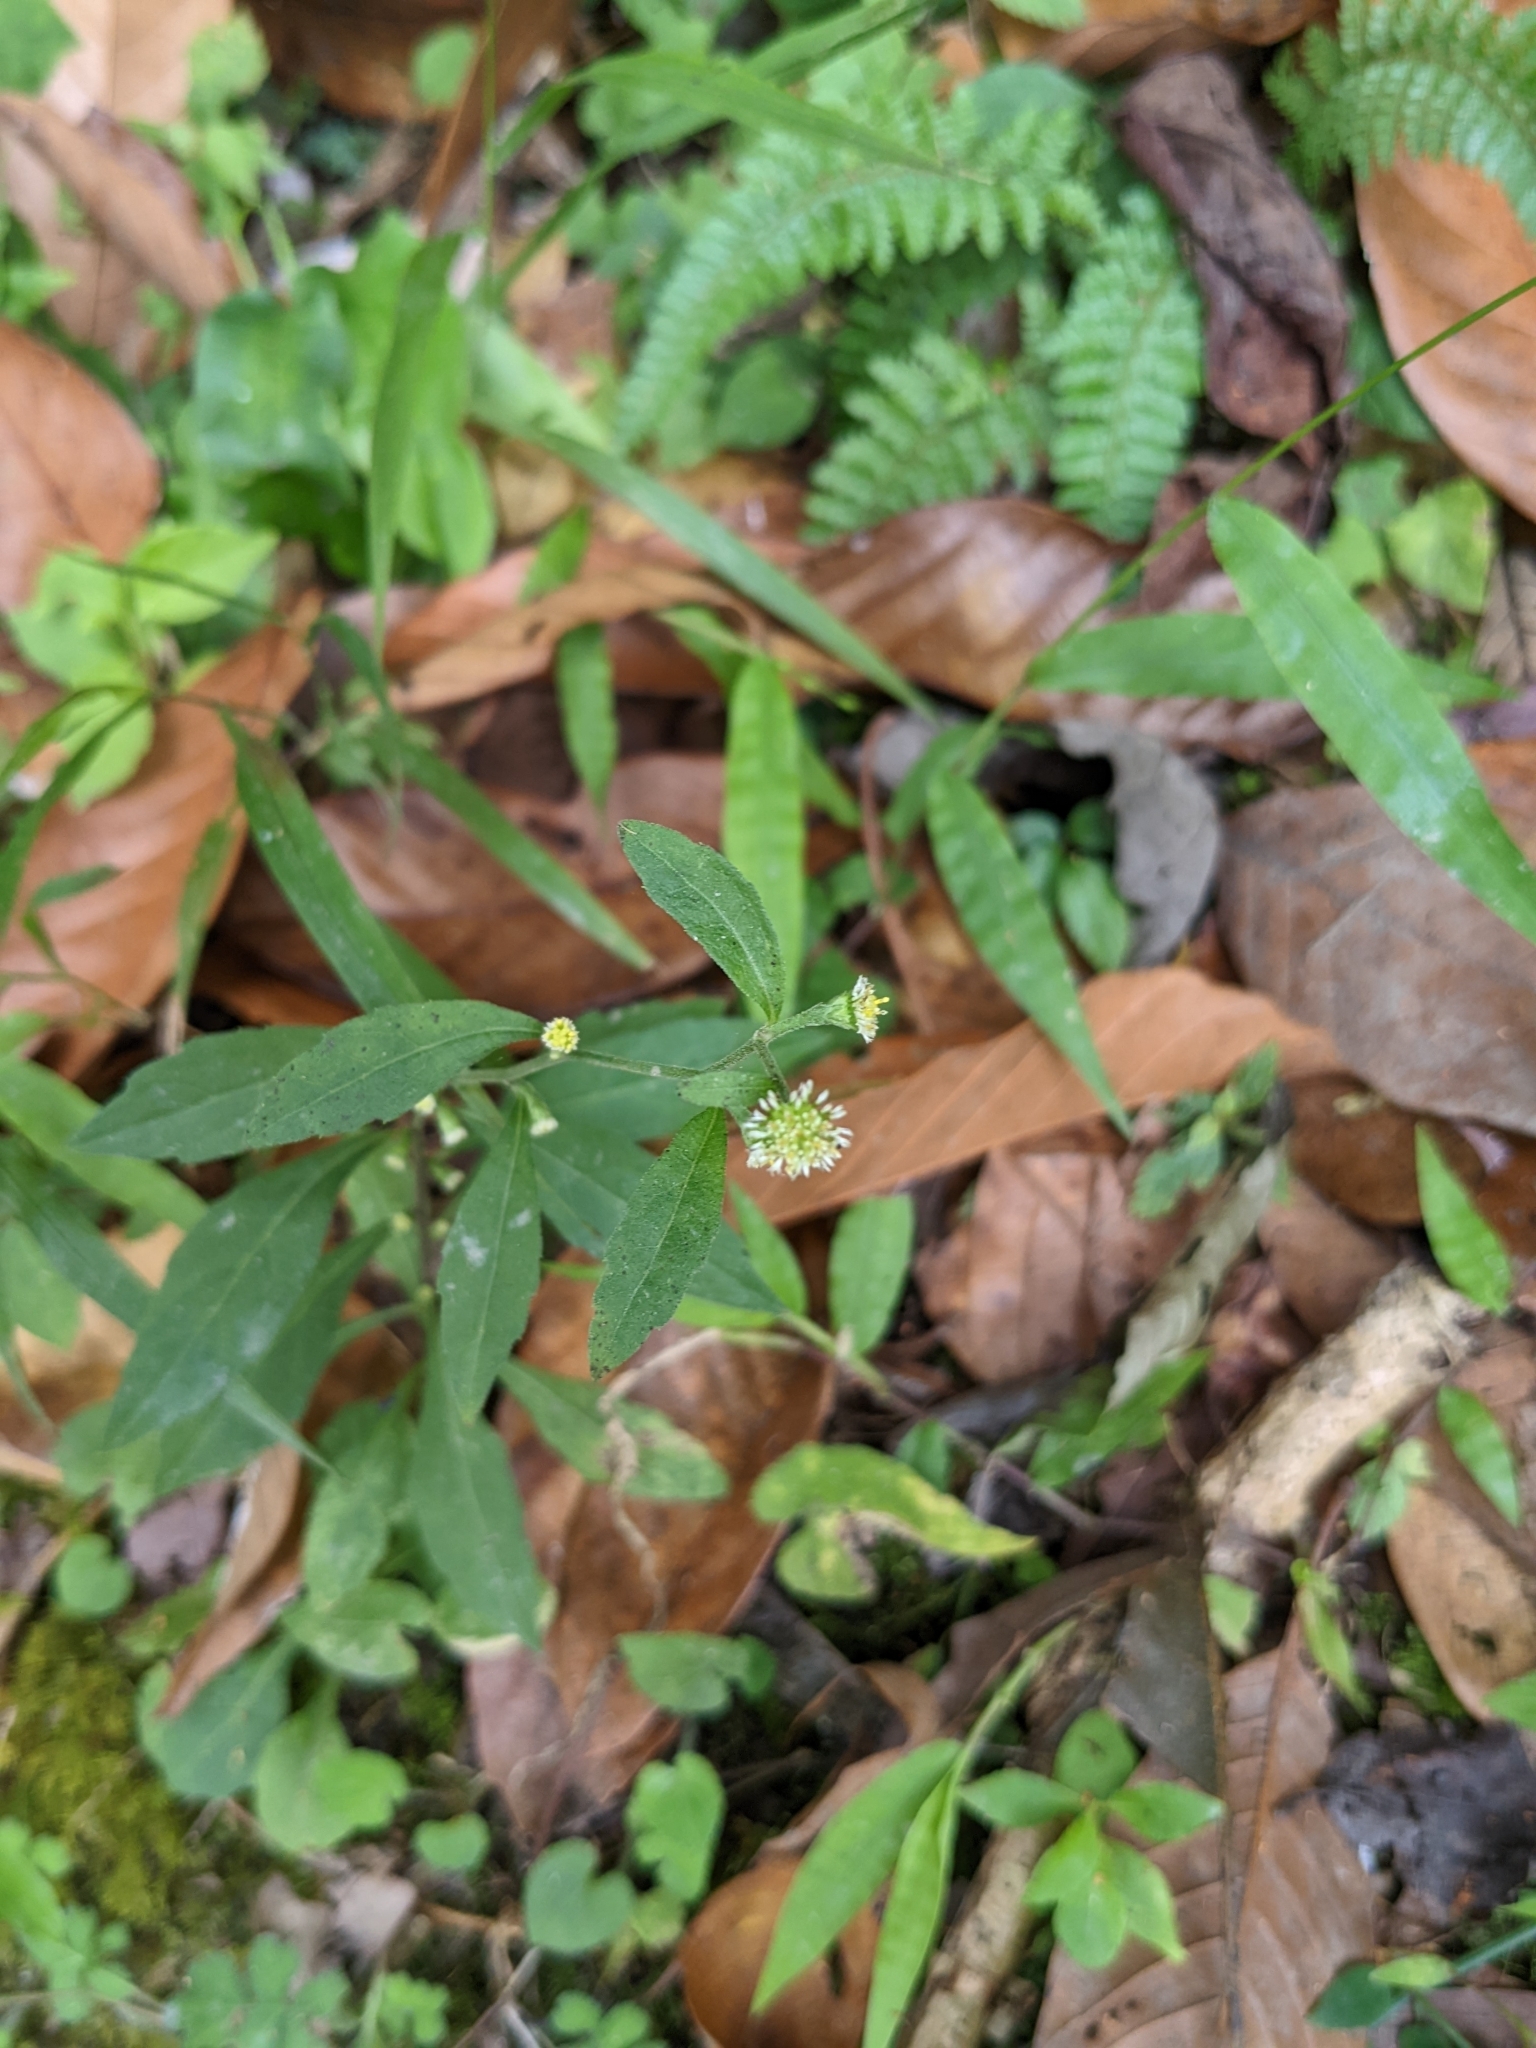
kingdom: Plantae
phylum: Tracheophyta
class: Magnoliopsida
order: Asterales
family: Asteraceae
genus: Rhynchospermum
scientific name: Rhynchospermum verticillatum
